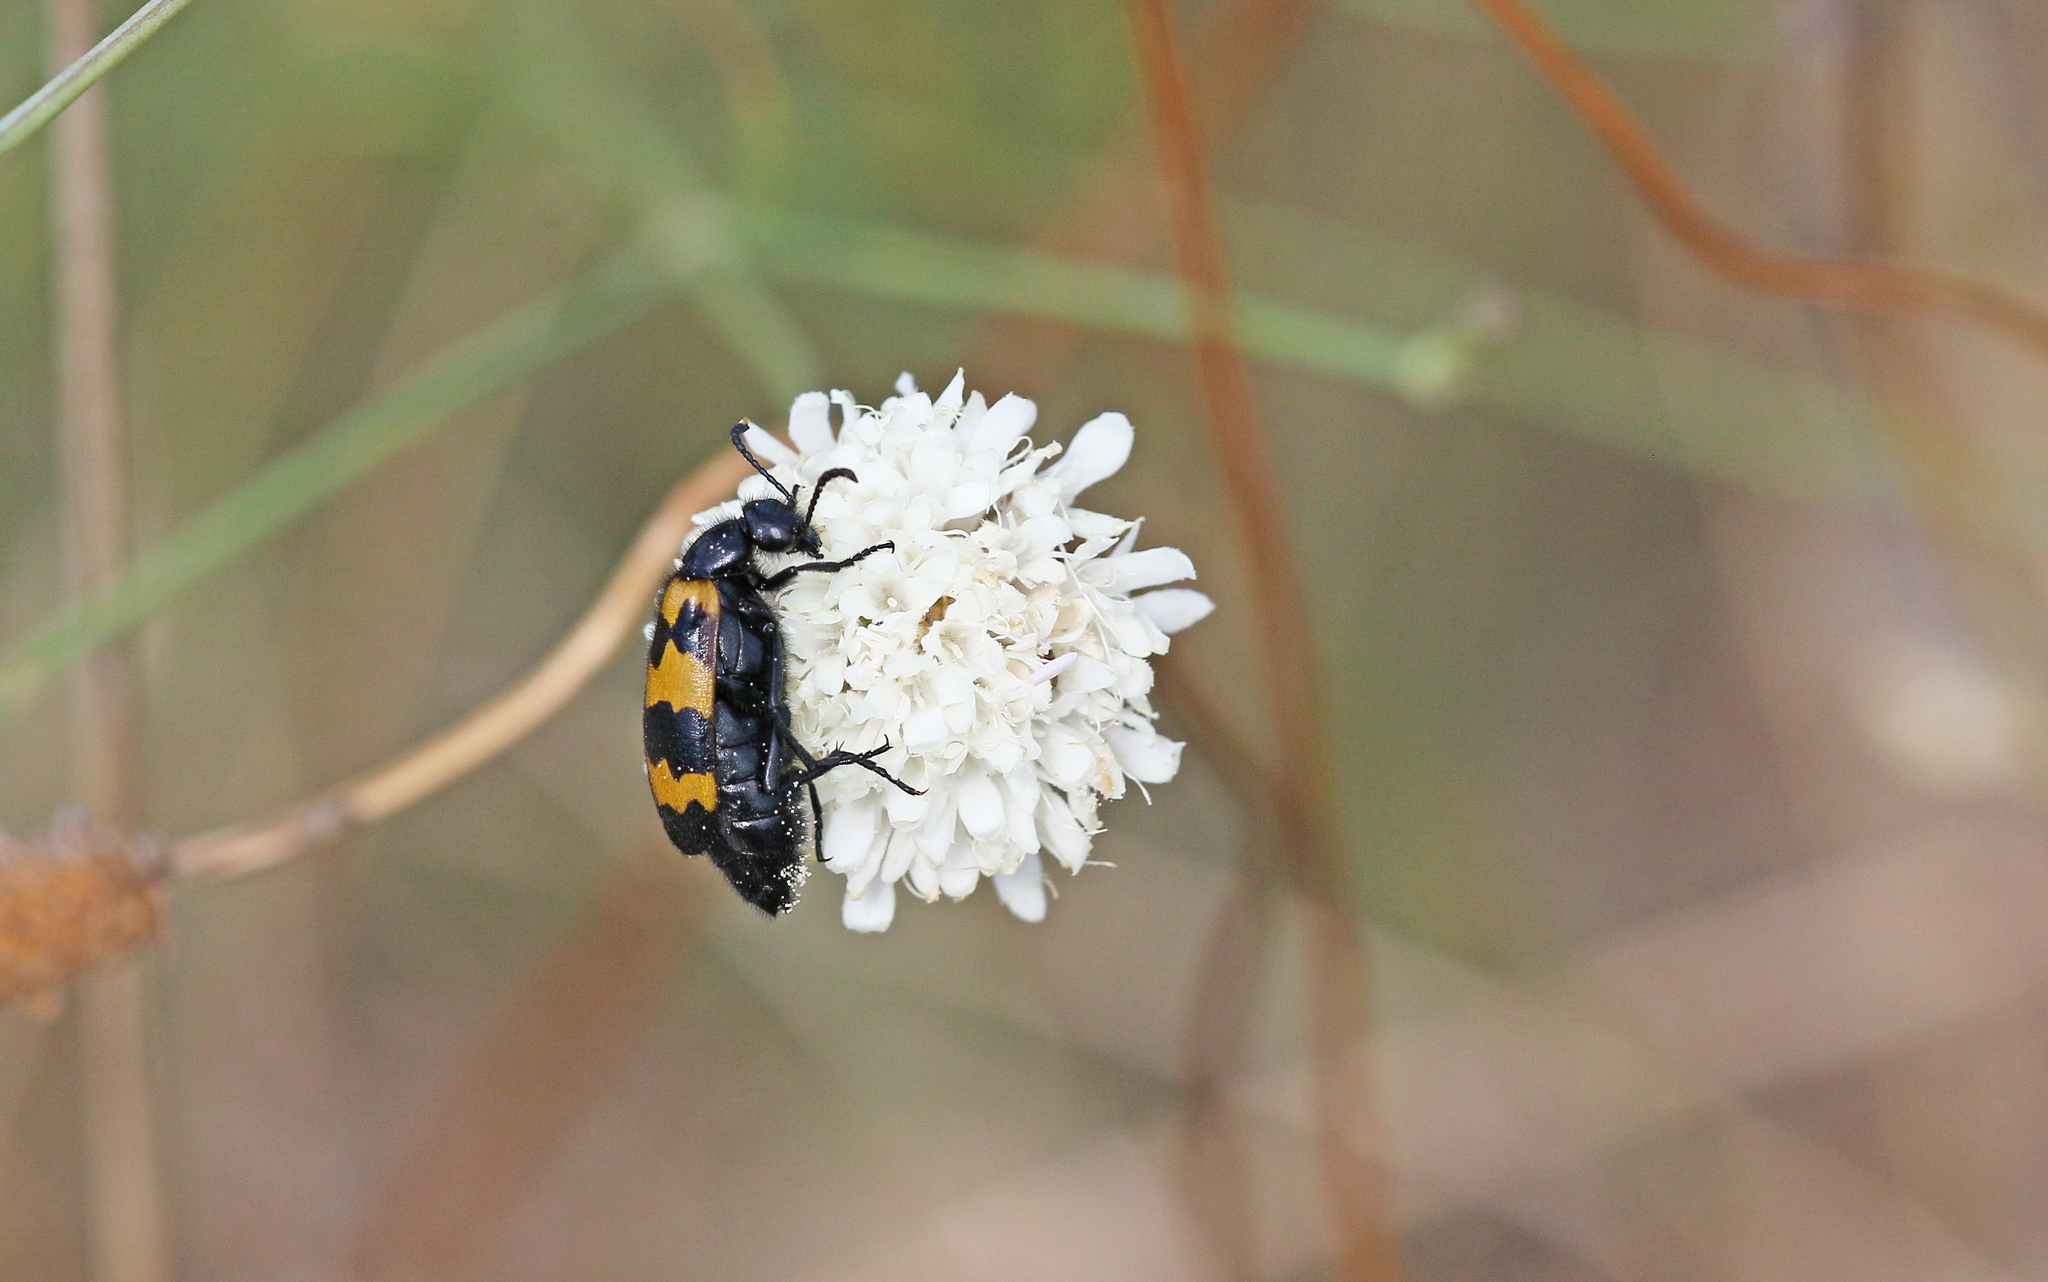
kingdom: Animalia
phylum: Arthropoda
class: Insecta
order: Coleoptera
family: Meloidae
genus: Mylabris
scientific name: Mylabris variabilis
